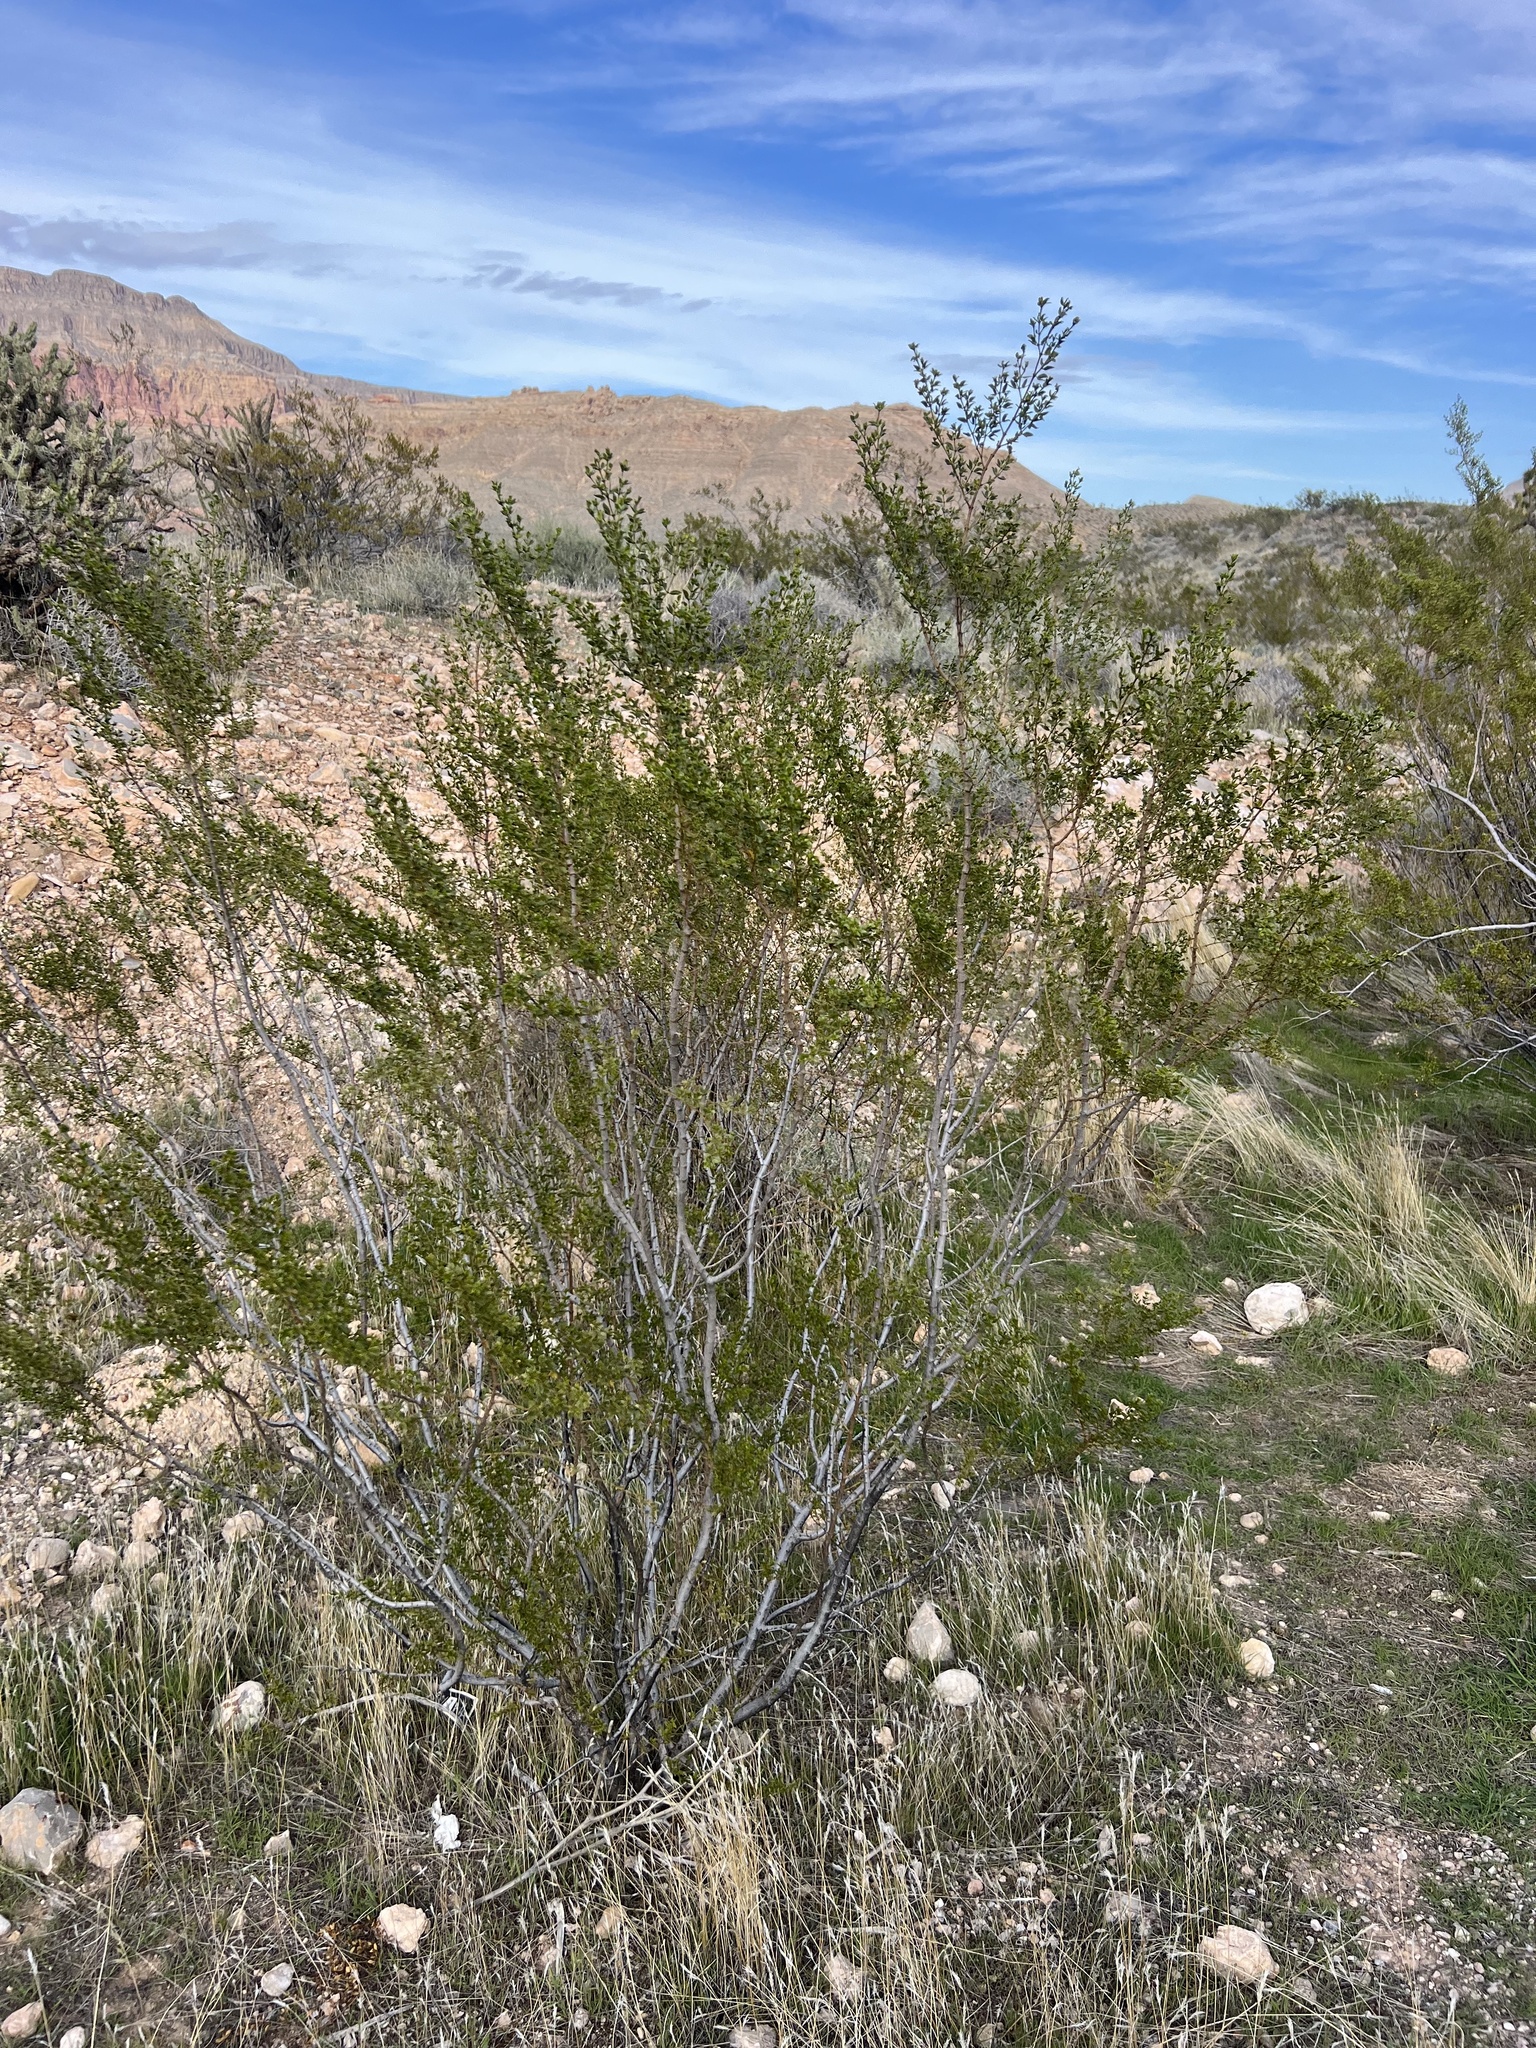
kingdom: Plantae
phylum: Tracheophyta
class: Magnoliopsida
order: Zygophyllales
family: Zygophyllaceae
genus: Larrea
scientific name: Larrea tridentata
